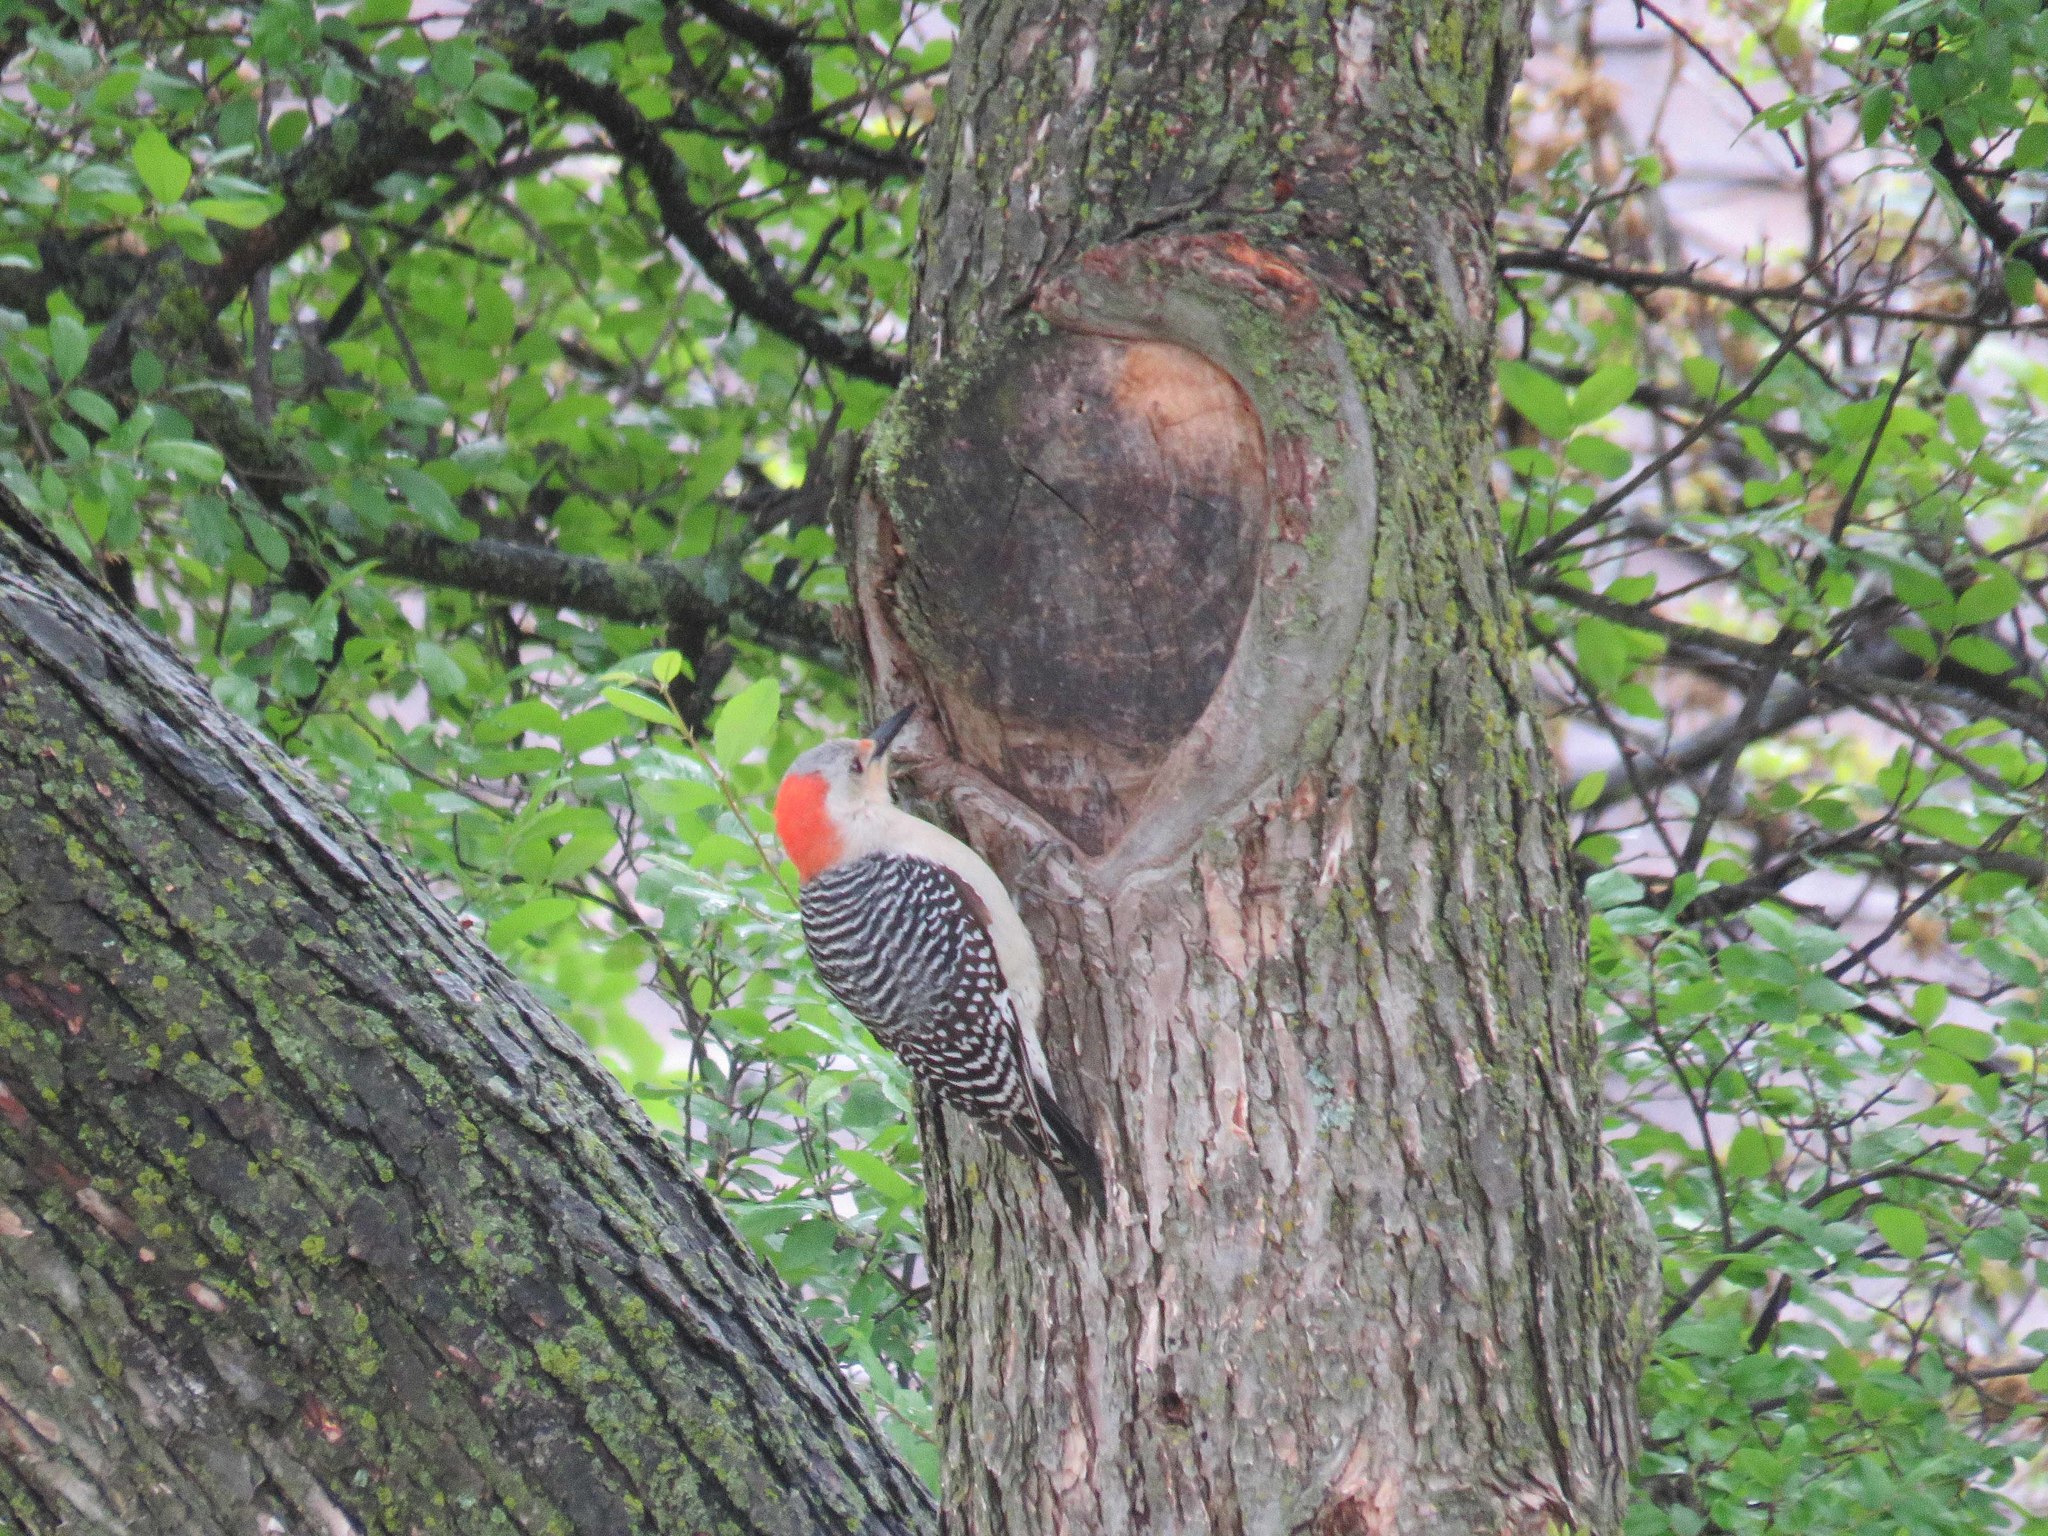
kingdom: Animalia
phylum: Chordata
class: Aves
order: Piciformes
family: Picidae
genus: Melanerpes
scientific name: Melanerpes carolinus
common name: Red-bellied woodpecker
